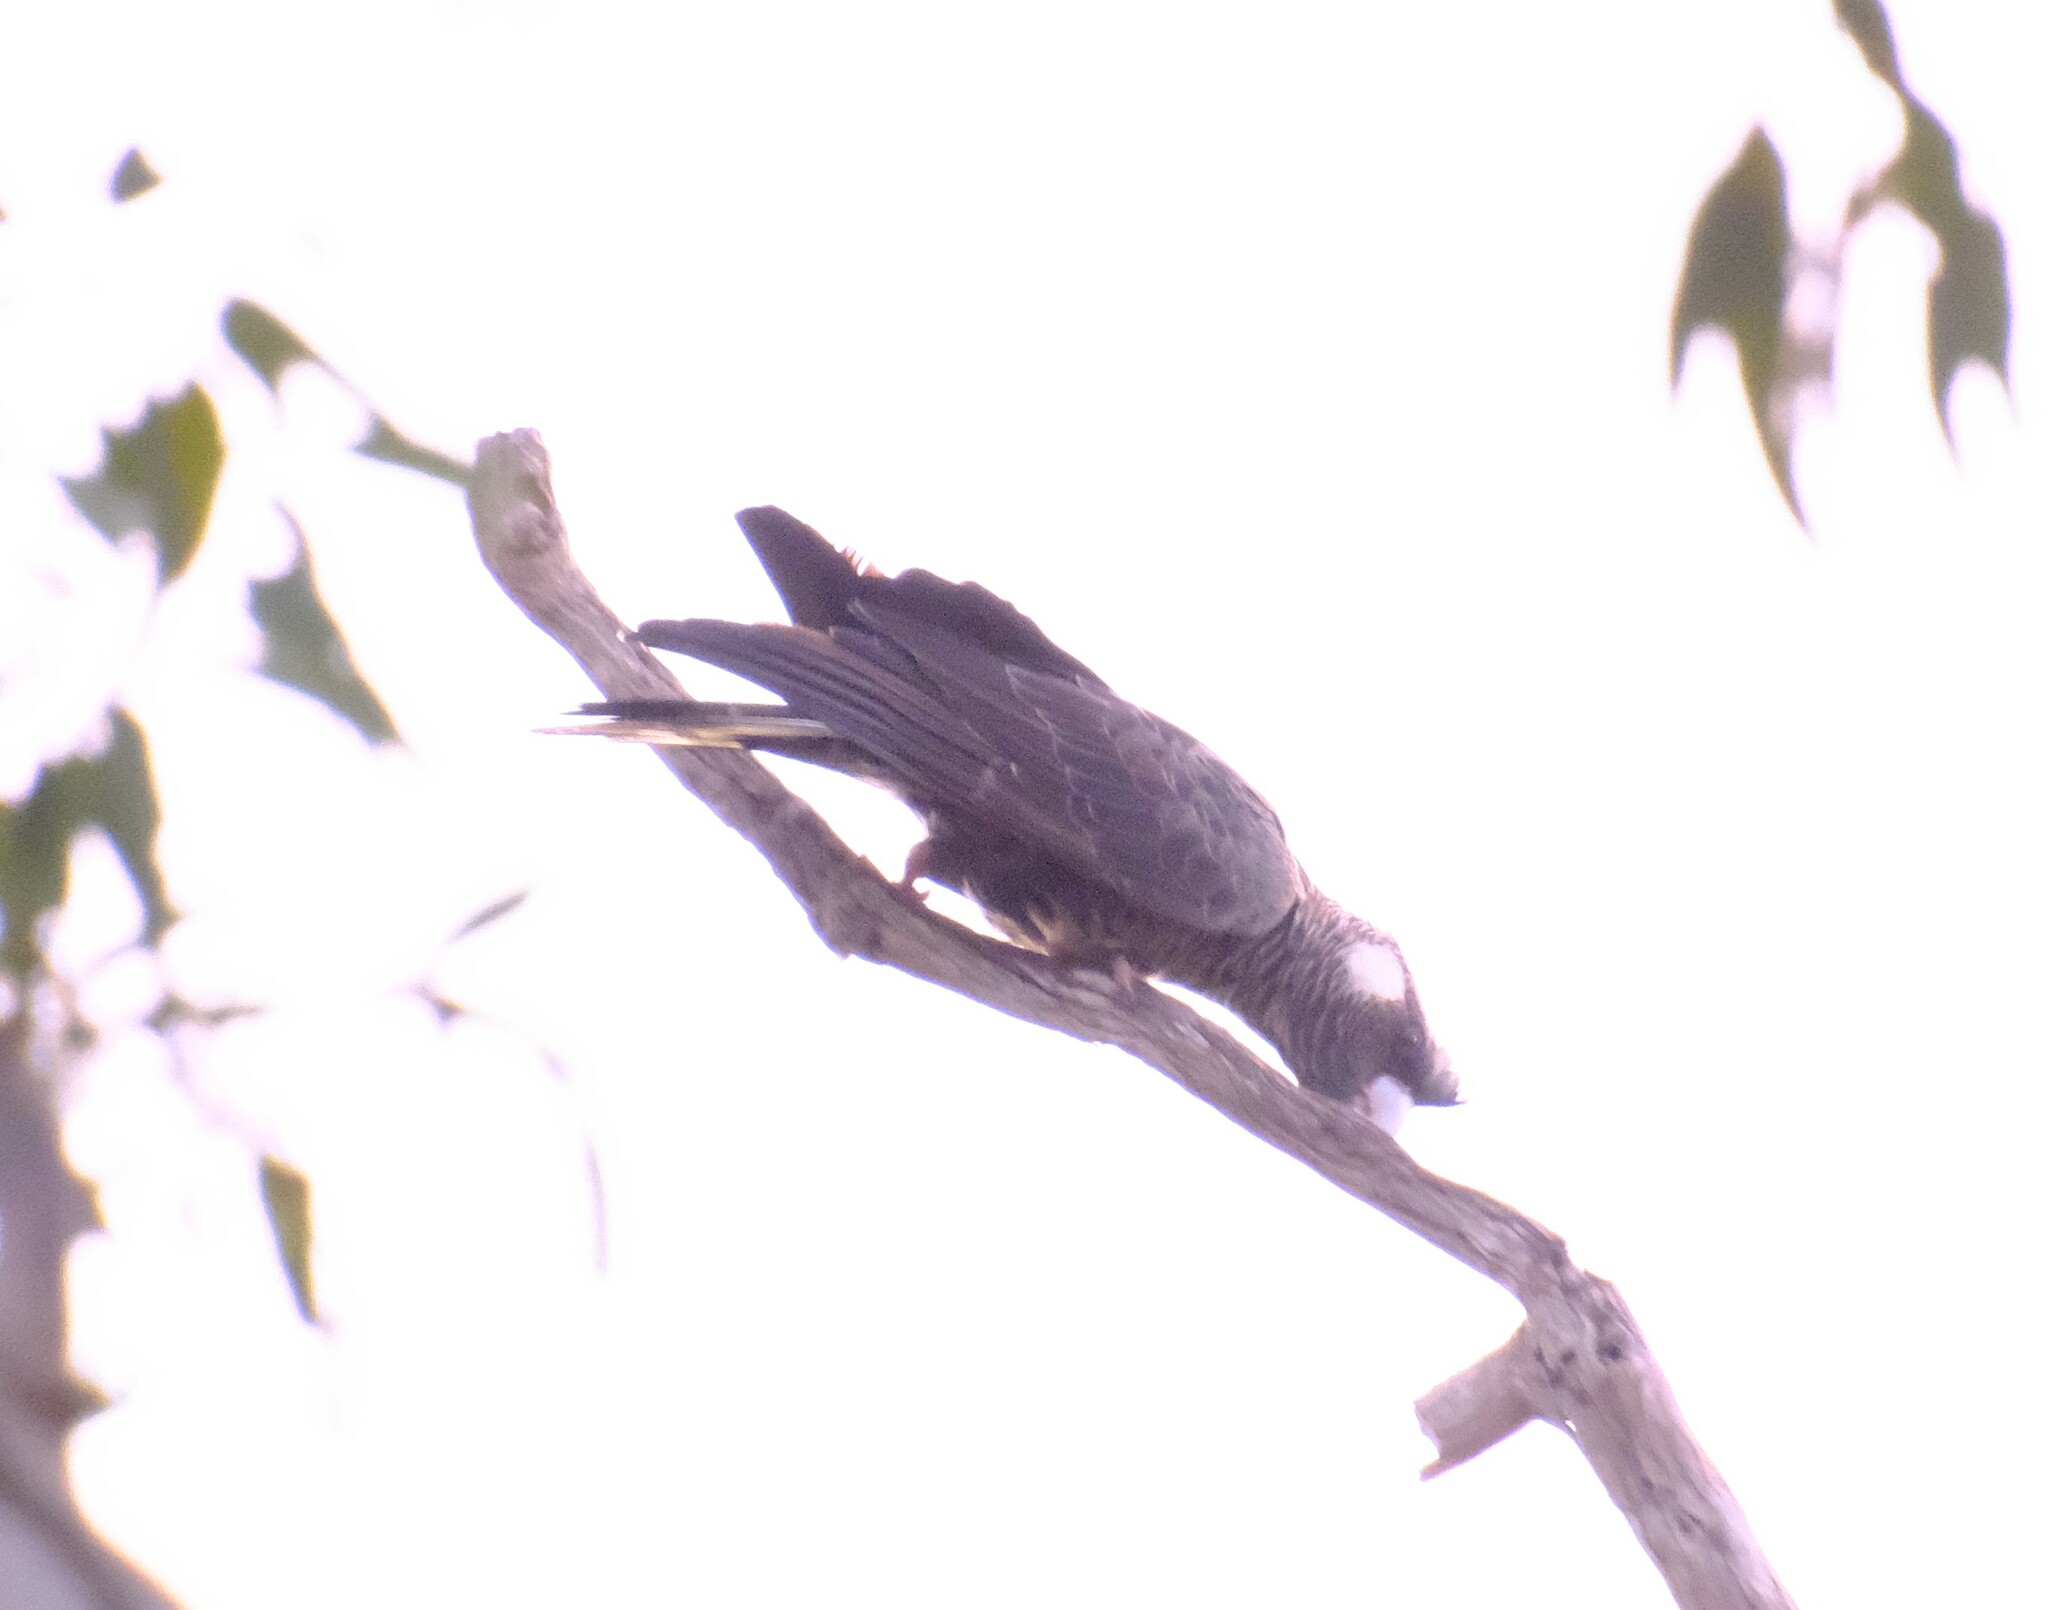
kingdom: Animalia
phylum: Chordata
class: Aves
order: Psittaciformes
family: Cacatuidae
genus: Zanda
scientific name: Zanda latirostris
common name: Short-billed black-cockatoo
